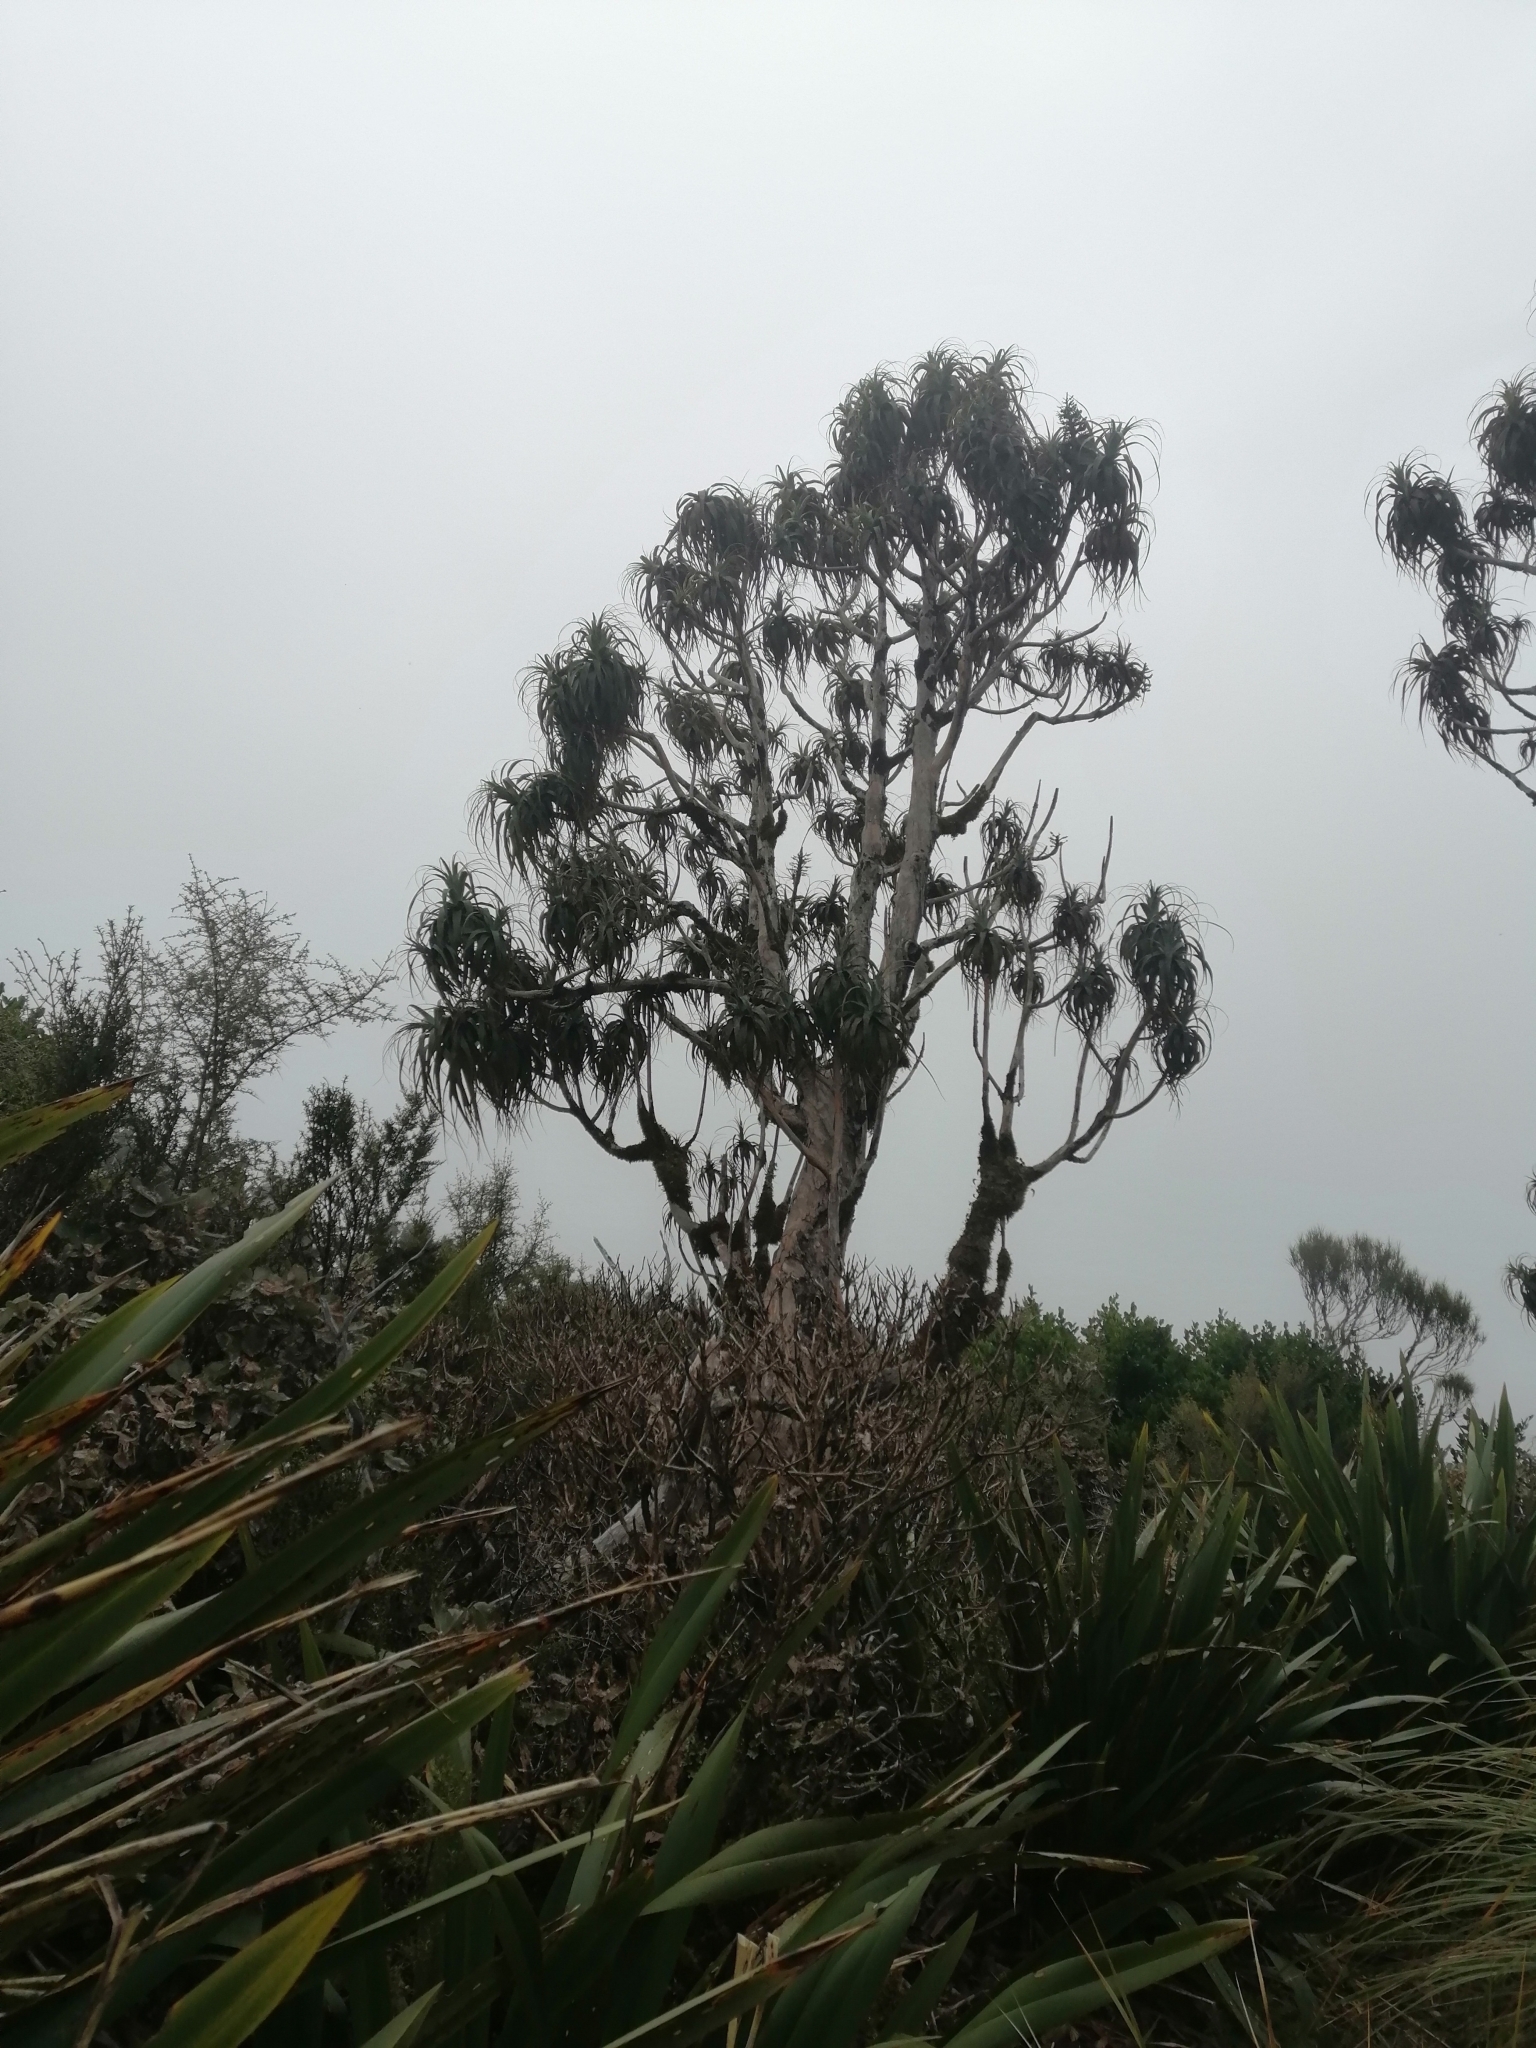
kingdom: Plantae
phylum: Tracheophyta
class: Magnoliopsida
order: Ericales
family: Ericaceae
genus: Dracophyllum
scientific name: Dracophyllum traversii
